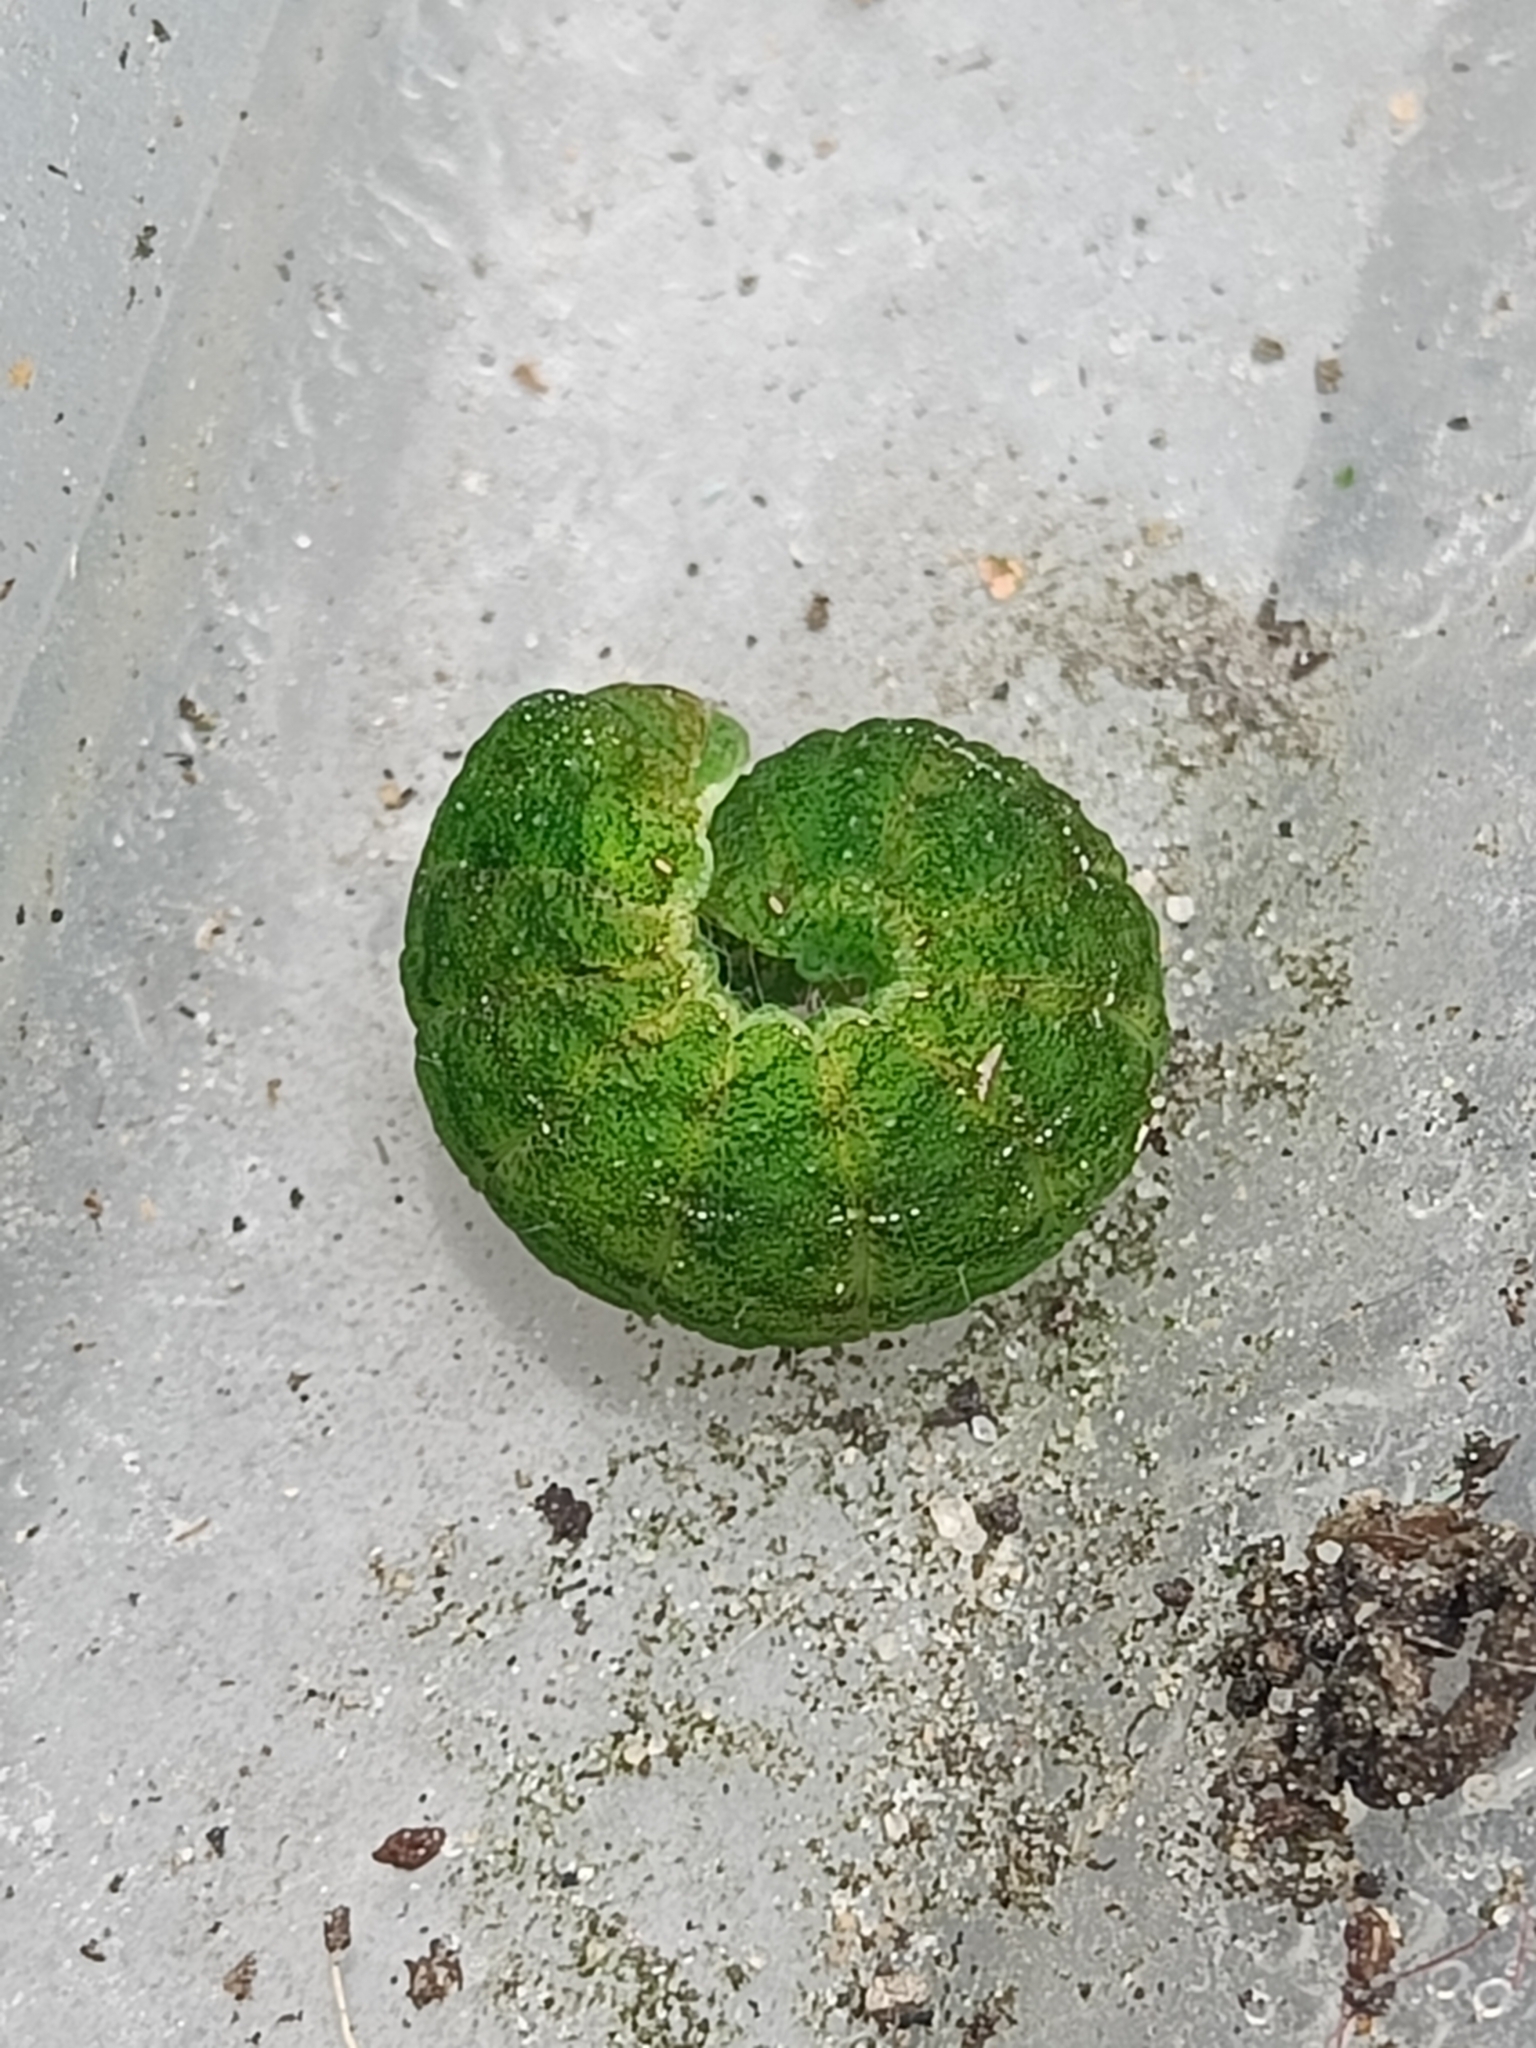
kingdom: Animalia
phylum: Arthropoda
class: Insecta
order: Lepidoptera
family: Noctuidae
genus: Phlogophora
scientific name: Phlogophora meticulosa
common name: Angle shades
